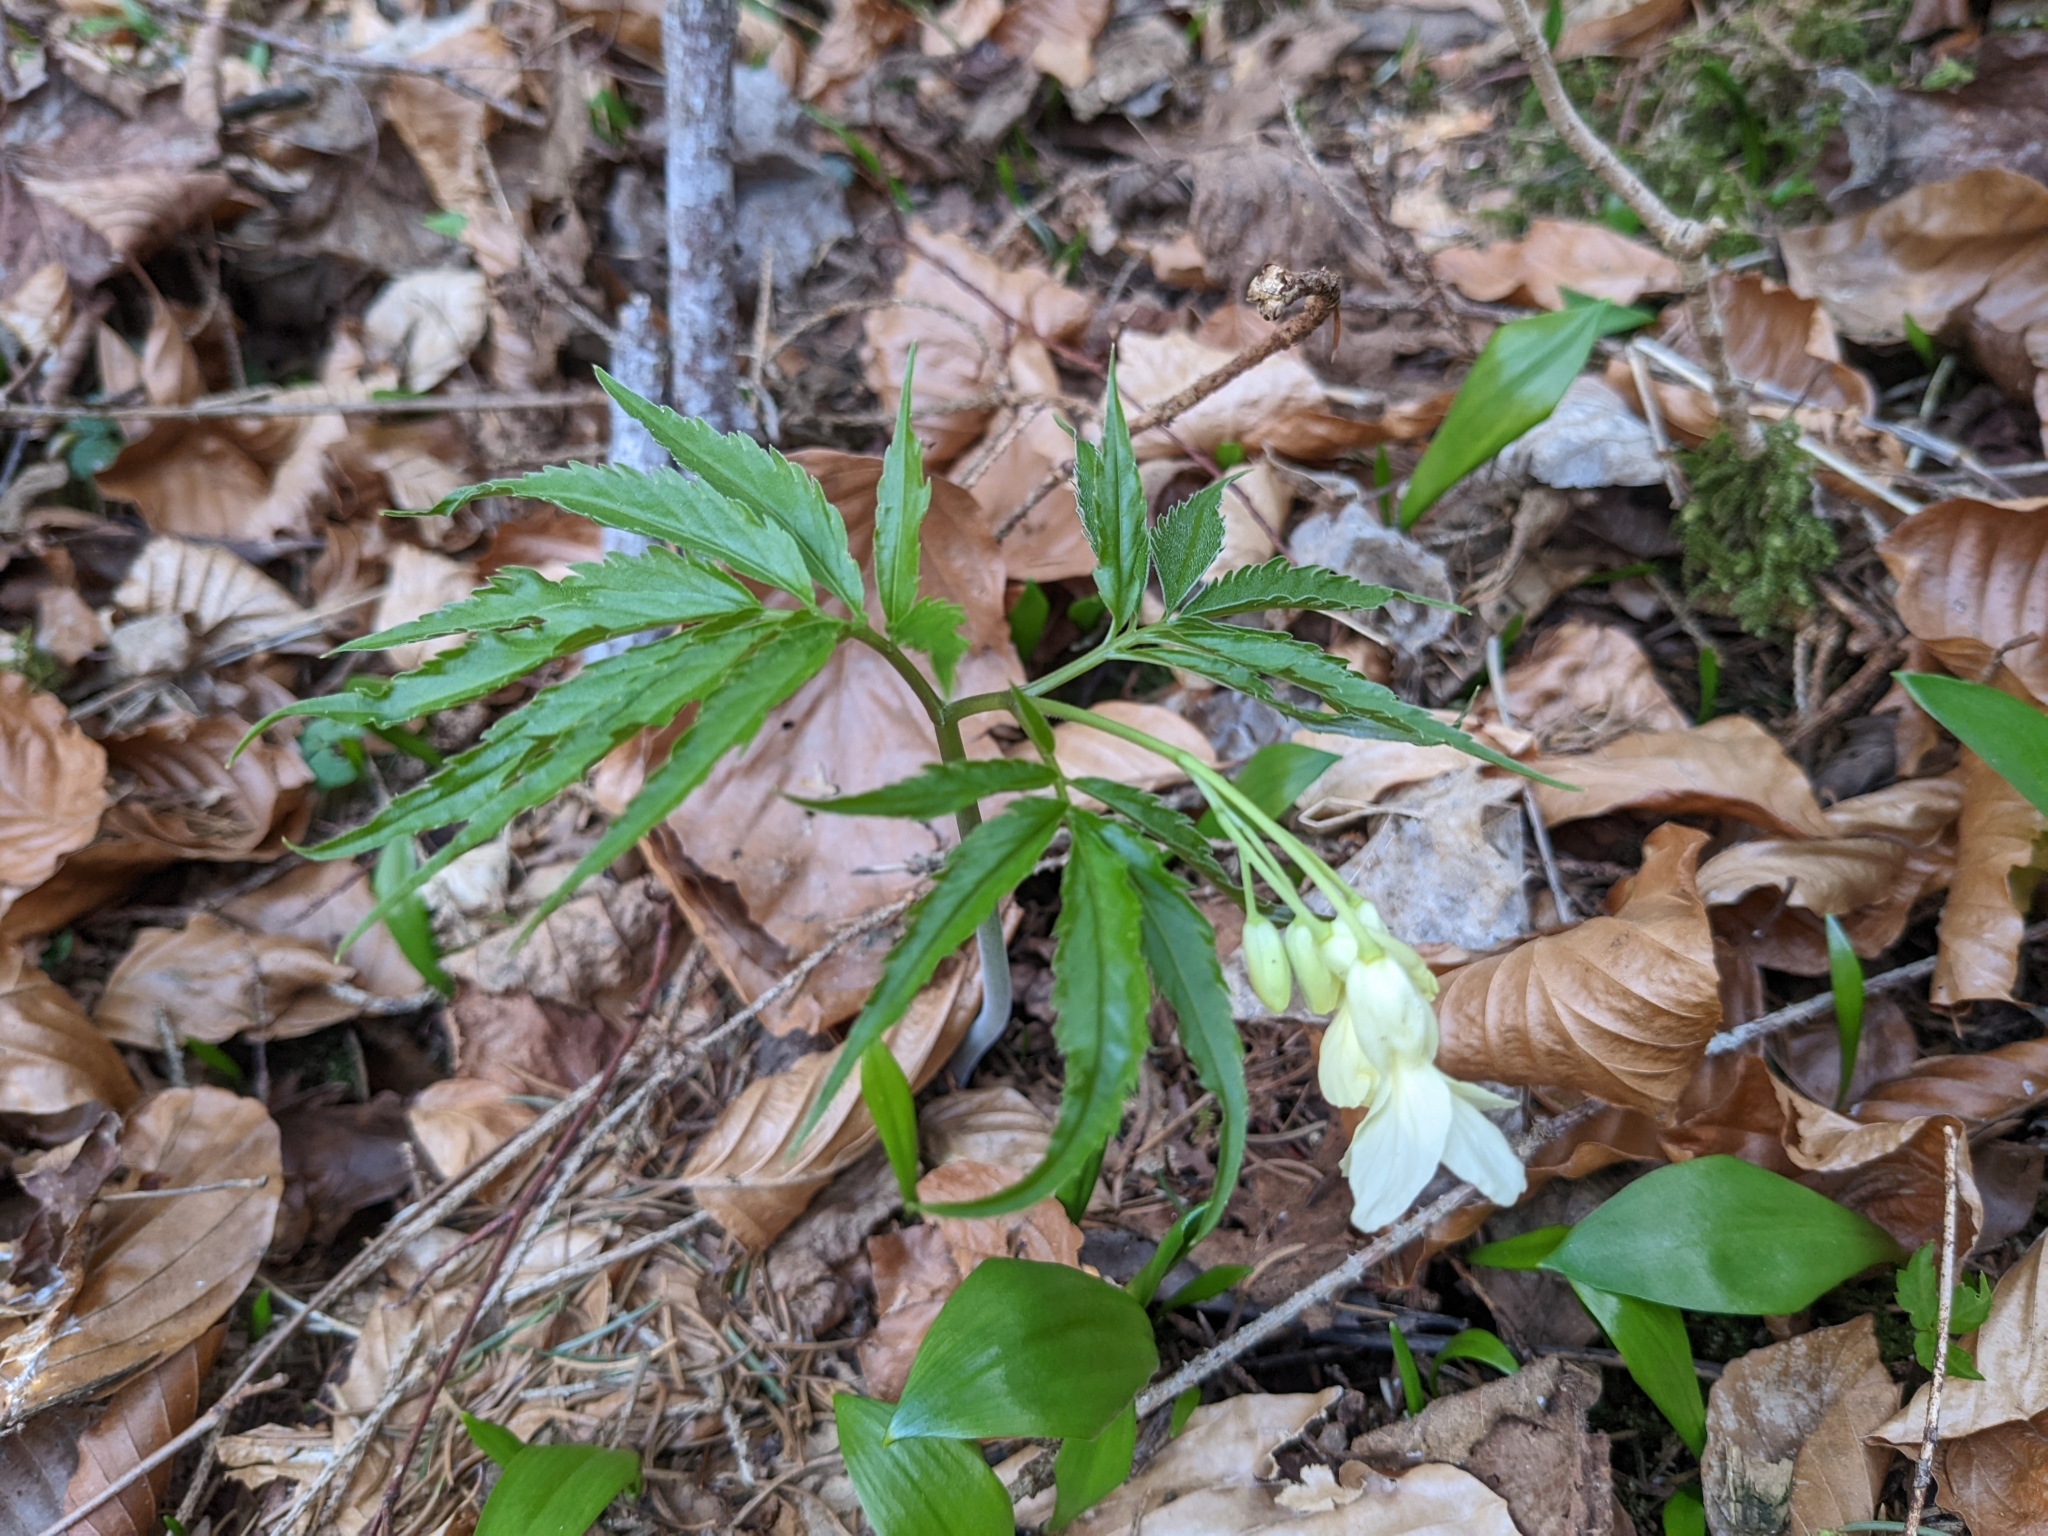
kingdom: Plantae
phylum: Tracheophyta
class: Magnoliopsida
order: Brassicales
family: Brassicaceae
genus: Cardamine
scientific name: Cardamine kitaibelii
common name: Kitaibel's bitter-cress
